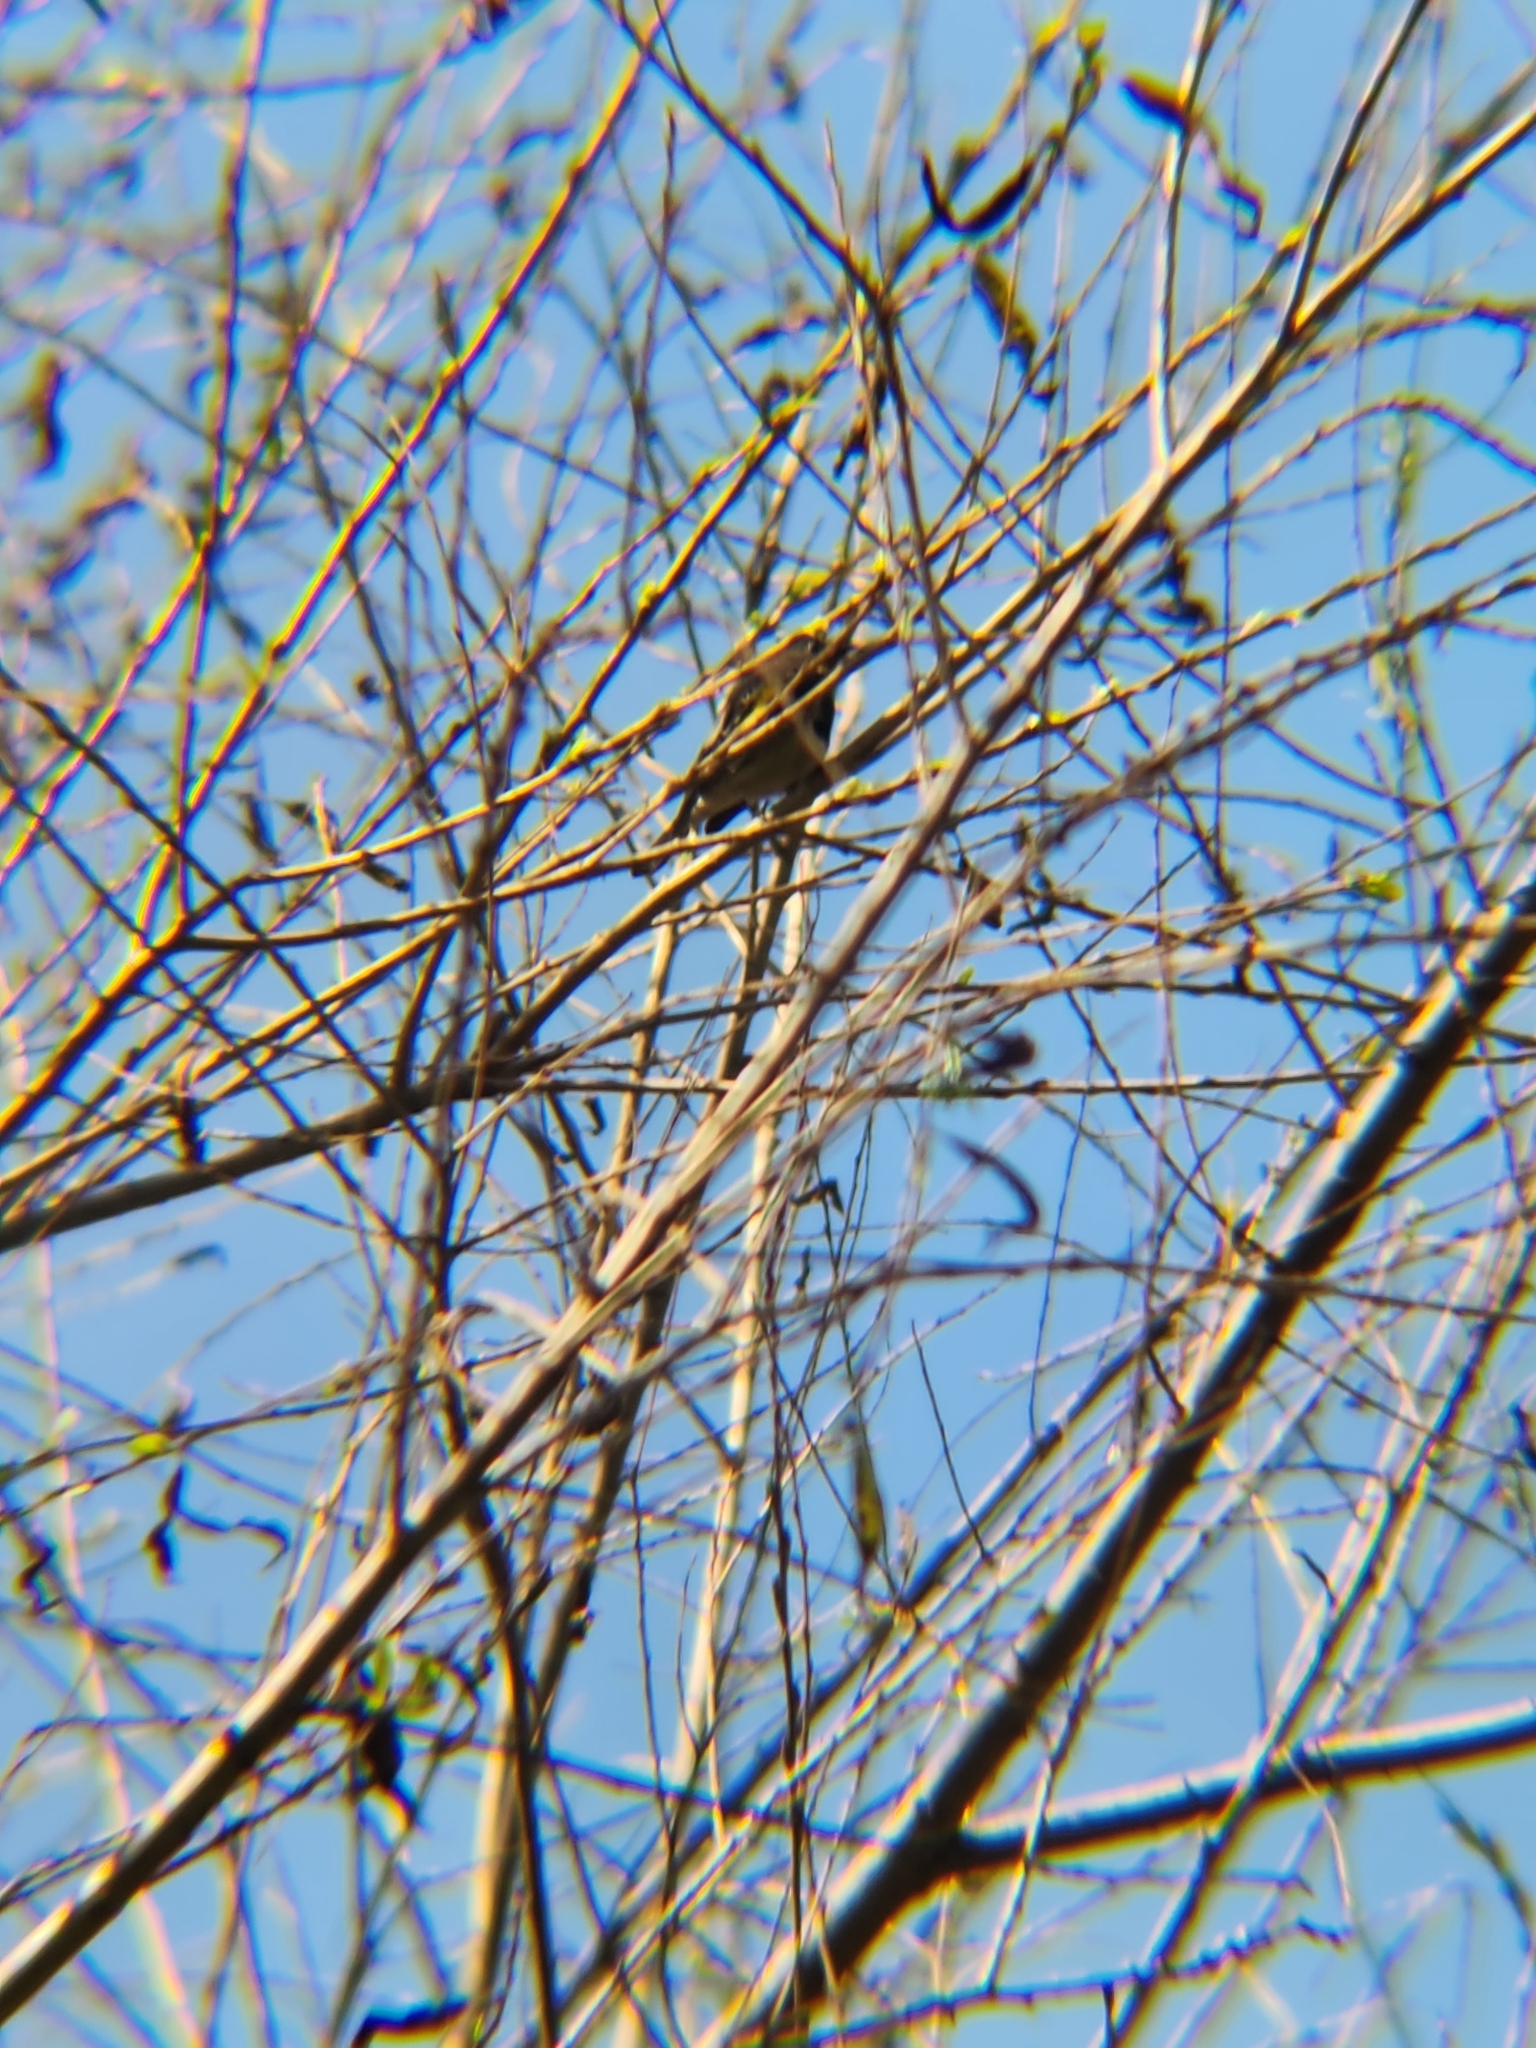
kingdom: Animalia
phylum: Chordata
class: Aves
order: Passeriformes
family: Parulidae
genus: Setophaga
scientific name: Setophaga coronata
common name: Myrtle warbler
